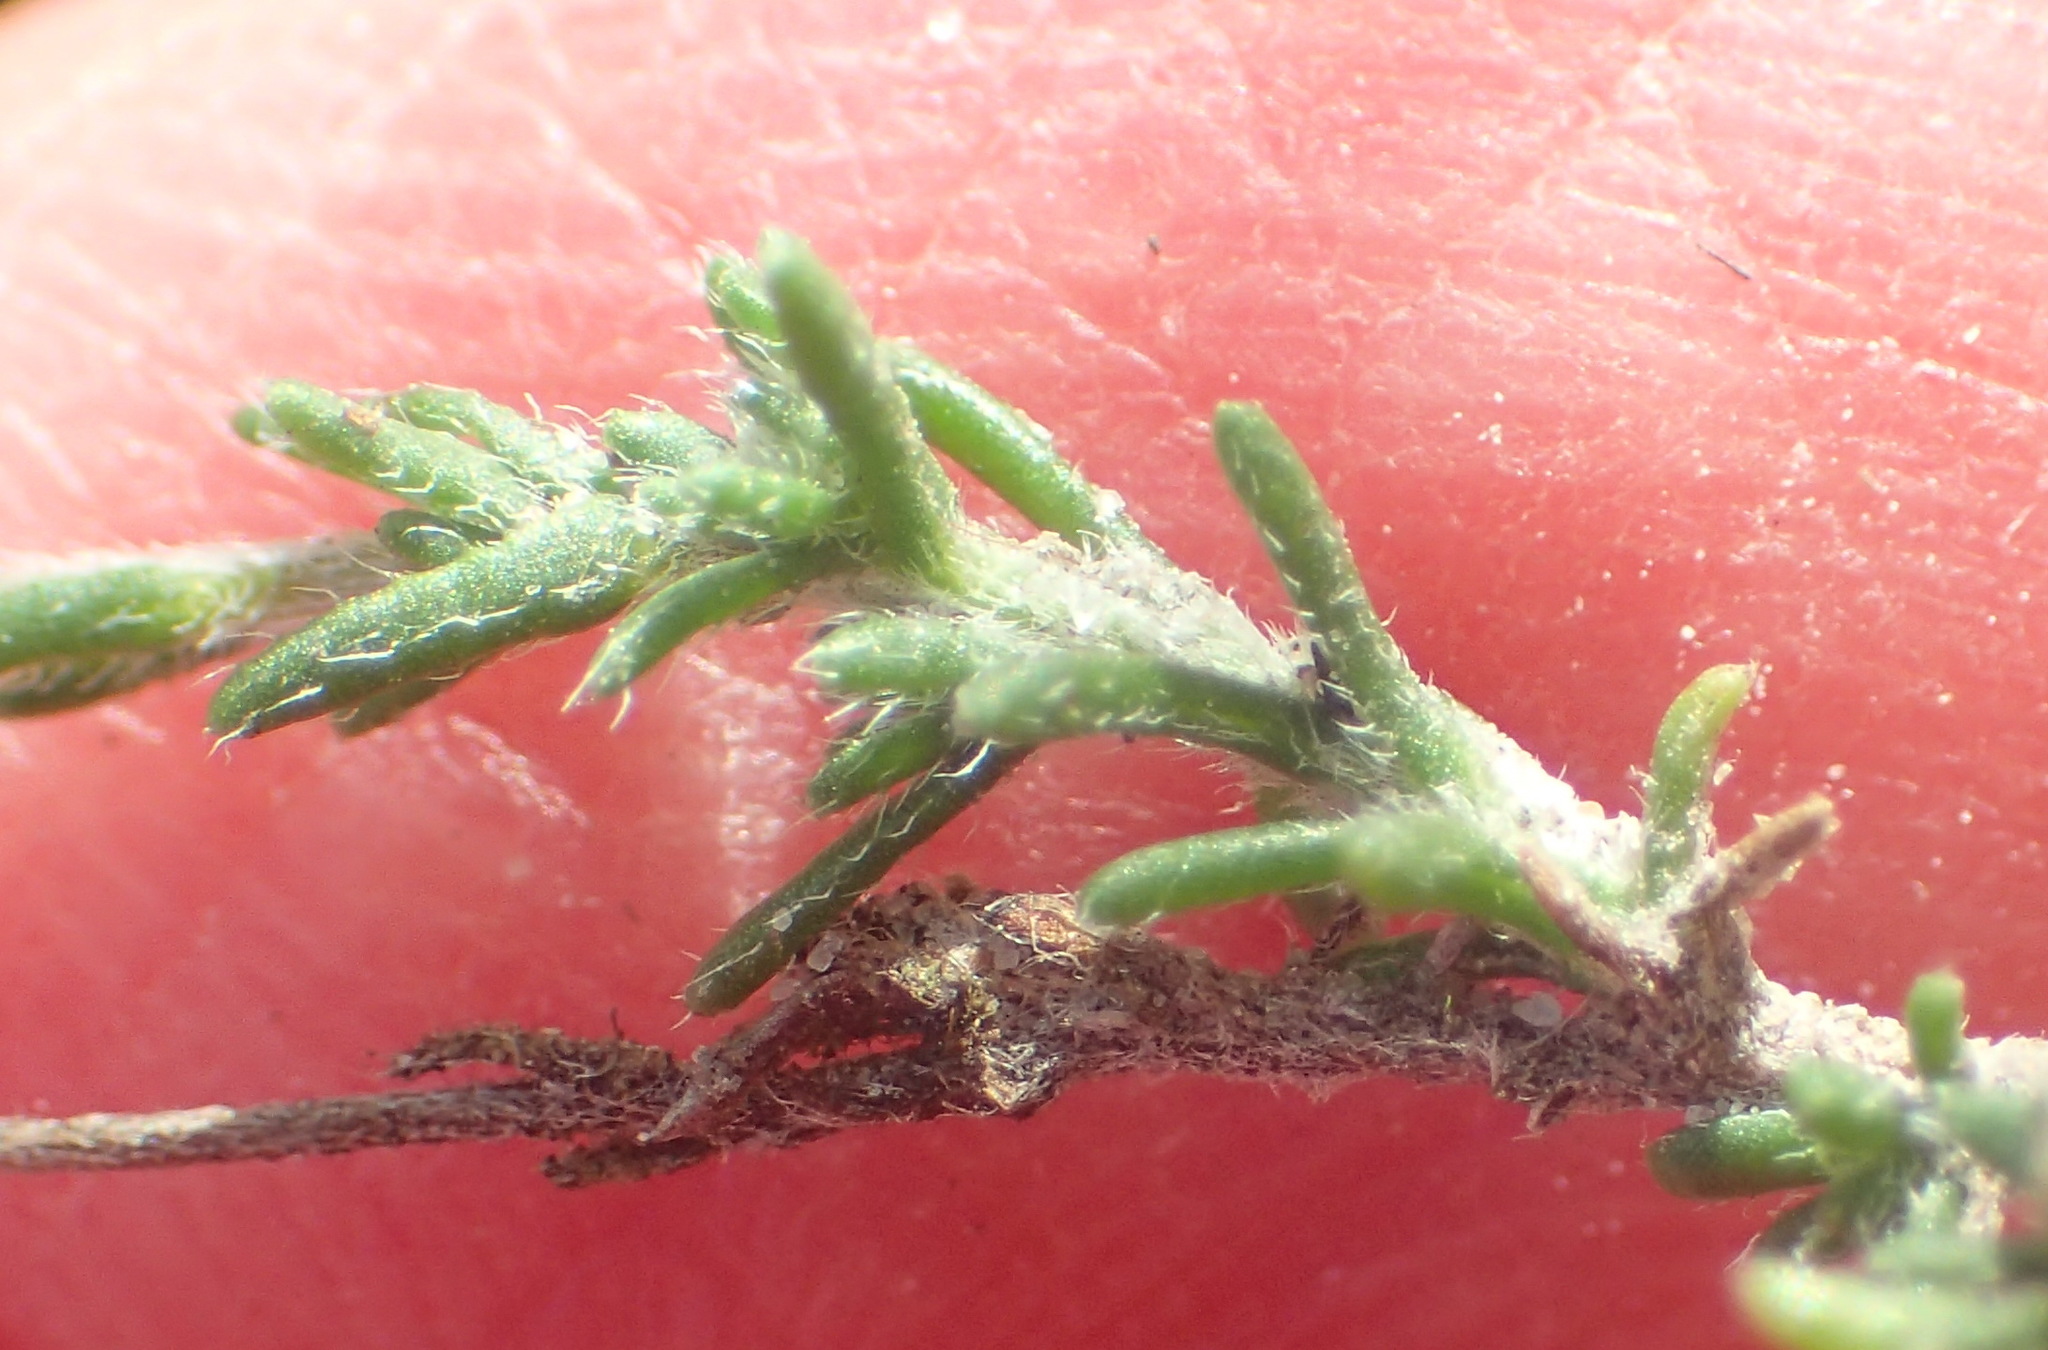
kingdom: Plantae
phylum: Tracheophyta
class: Magnoliopsida
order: Asterales
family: Asteraceae
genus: Felicia
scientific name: Felicia muricata
